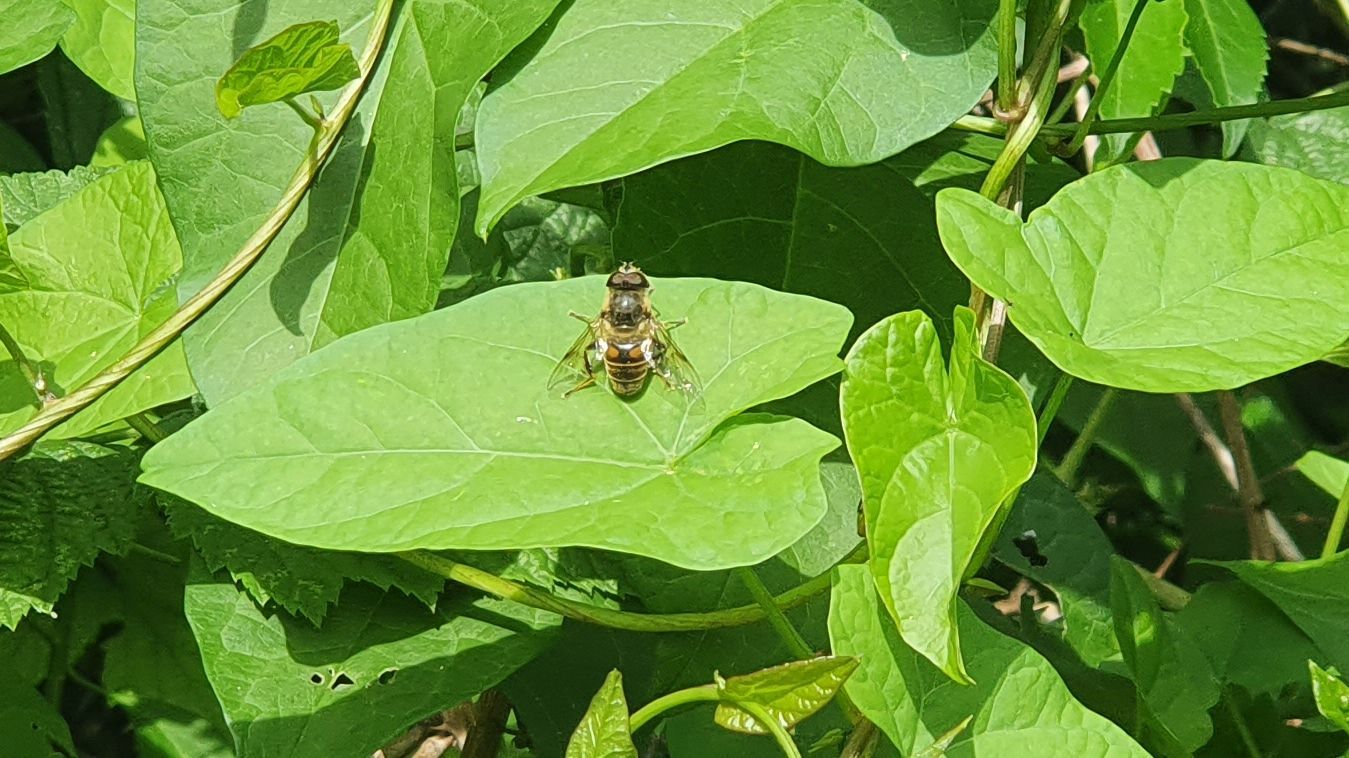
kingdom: Animalia
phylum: Arthropoda
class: Insecta
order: Diptera
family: Syrphidae
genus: Eristalis
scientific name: Eristalis tenax
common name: Drone fly
